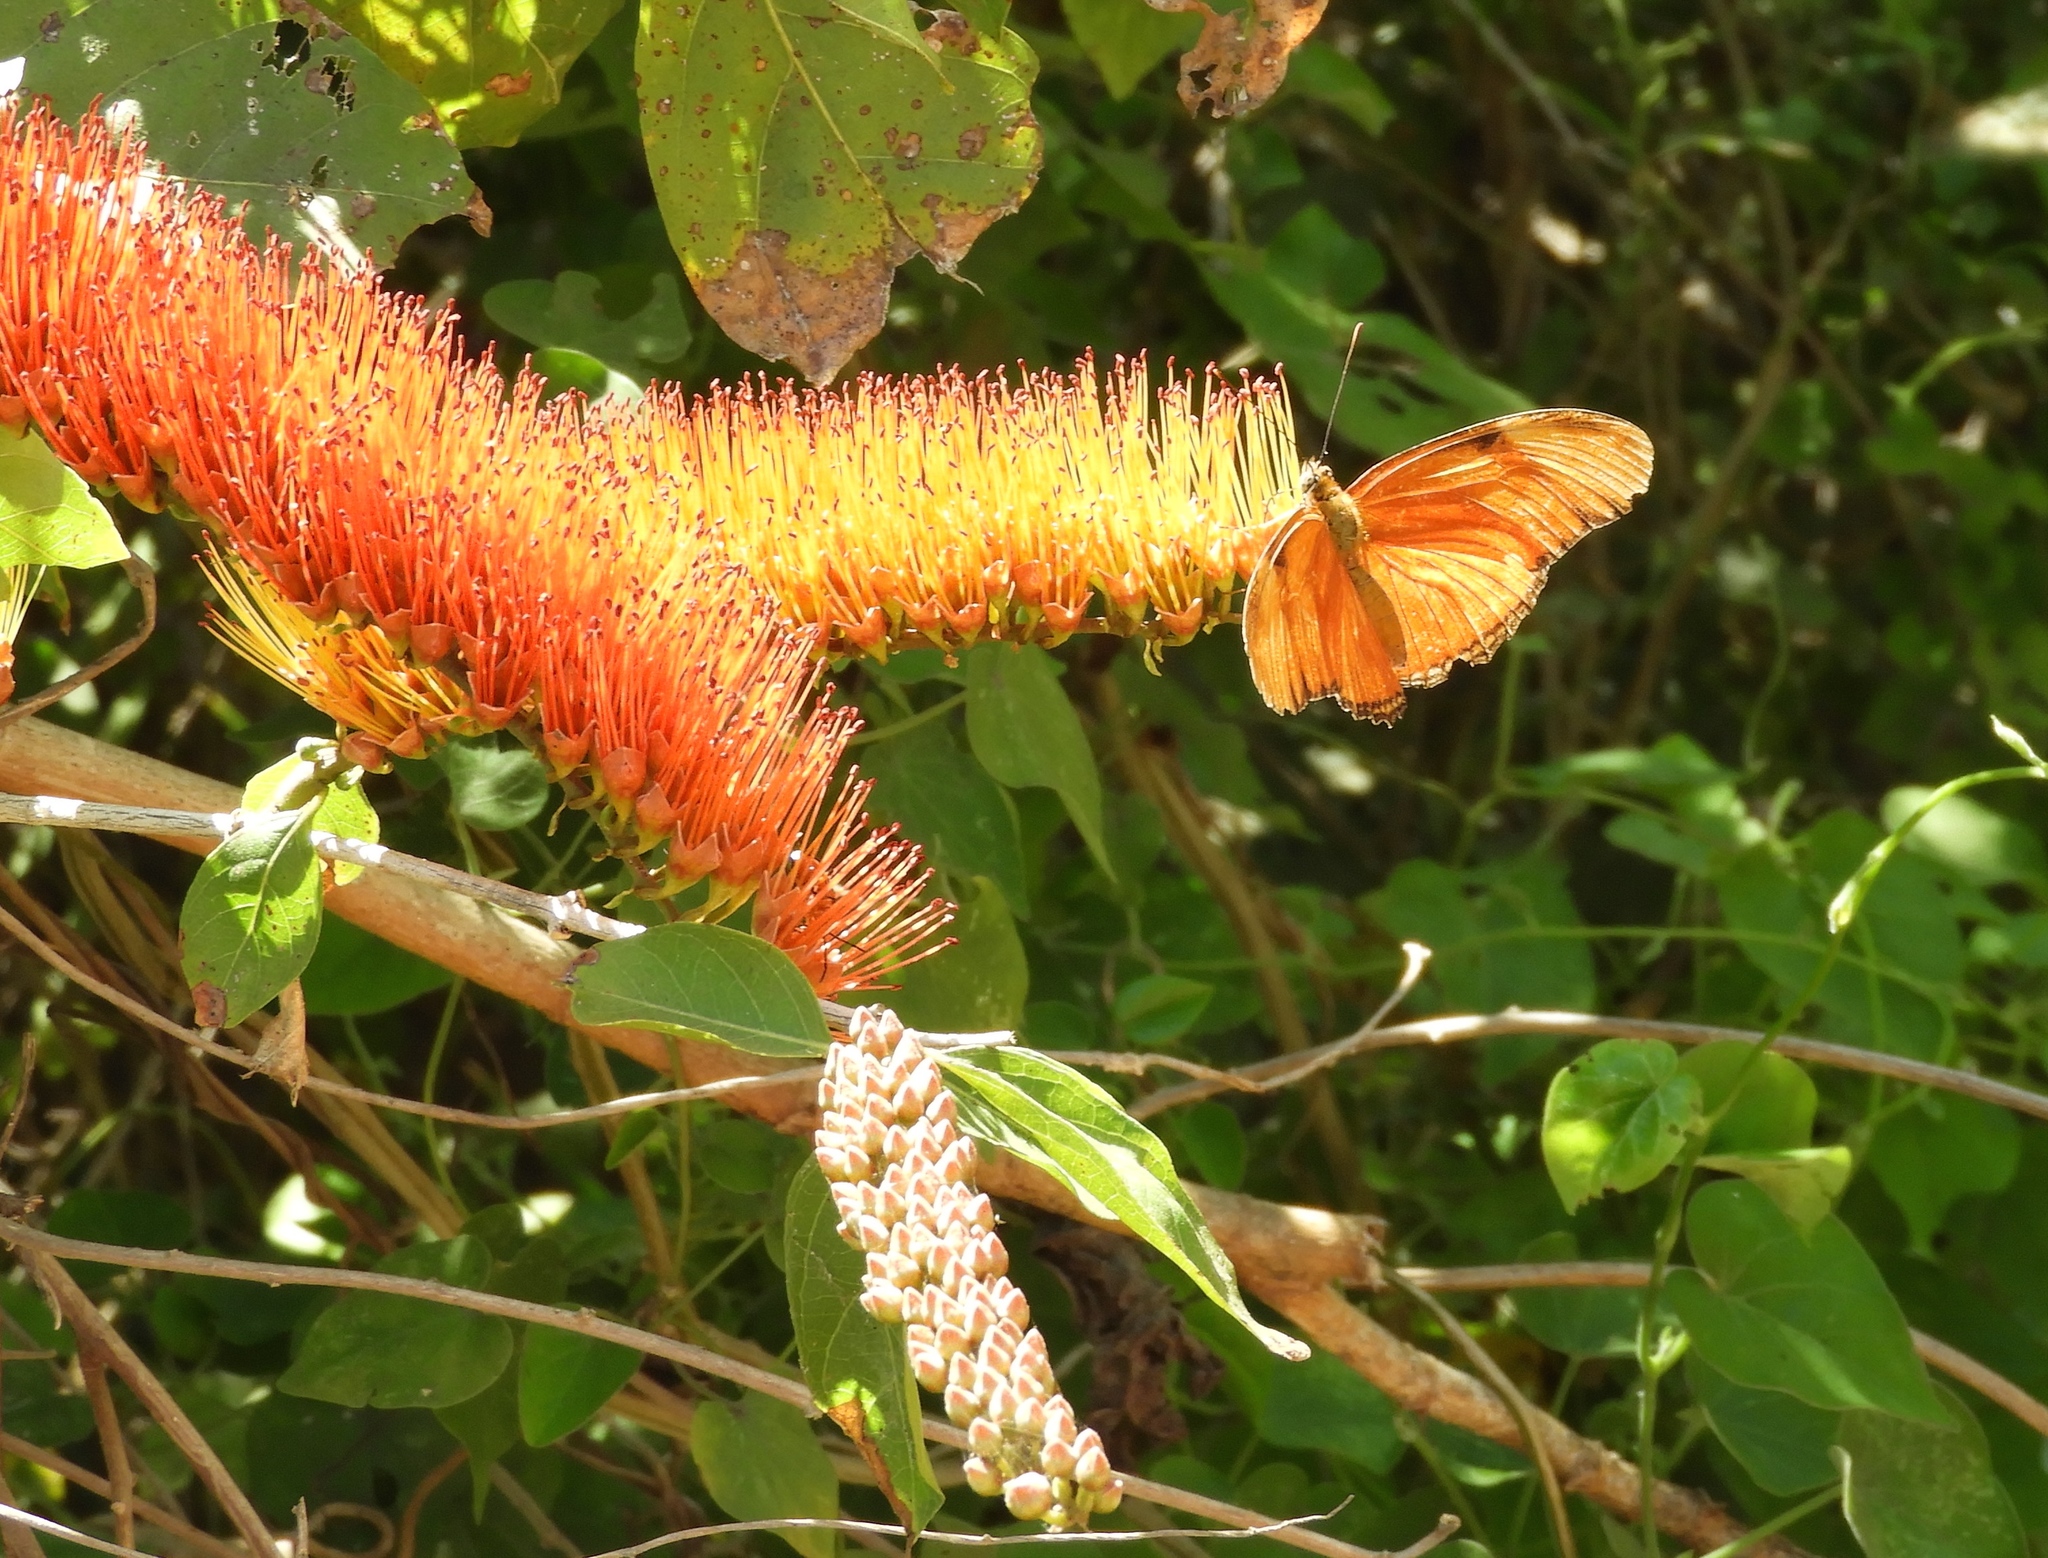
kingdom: Animalia
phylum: Arthropoda
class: Insecta
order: Lepidoptera
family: Nymphalidae
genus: Dryas
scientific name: Dryas iulia
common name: Flambeau
